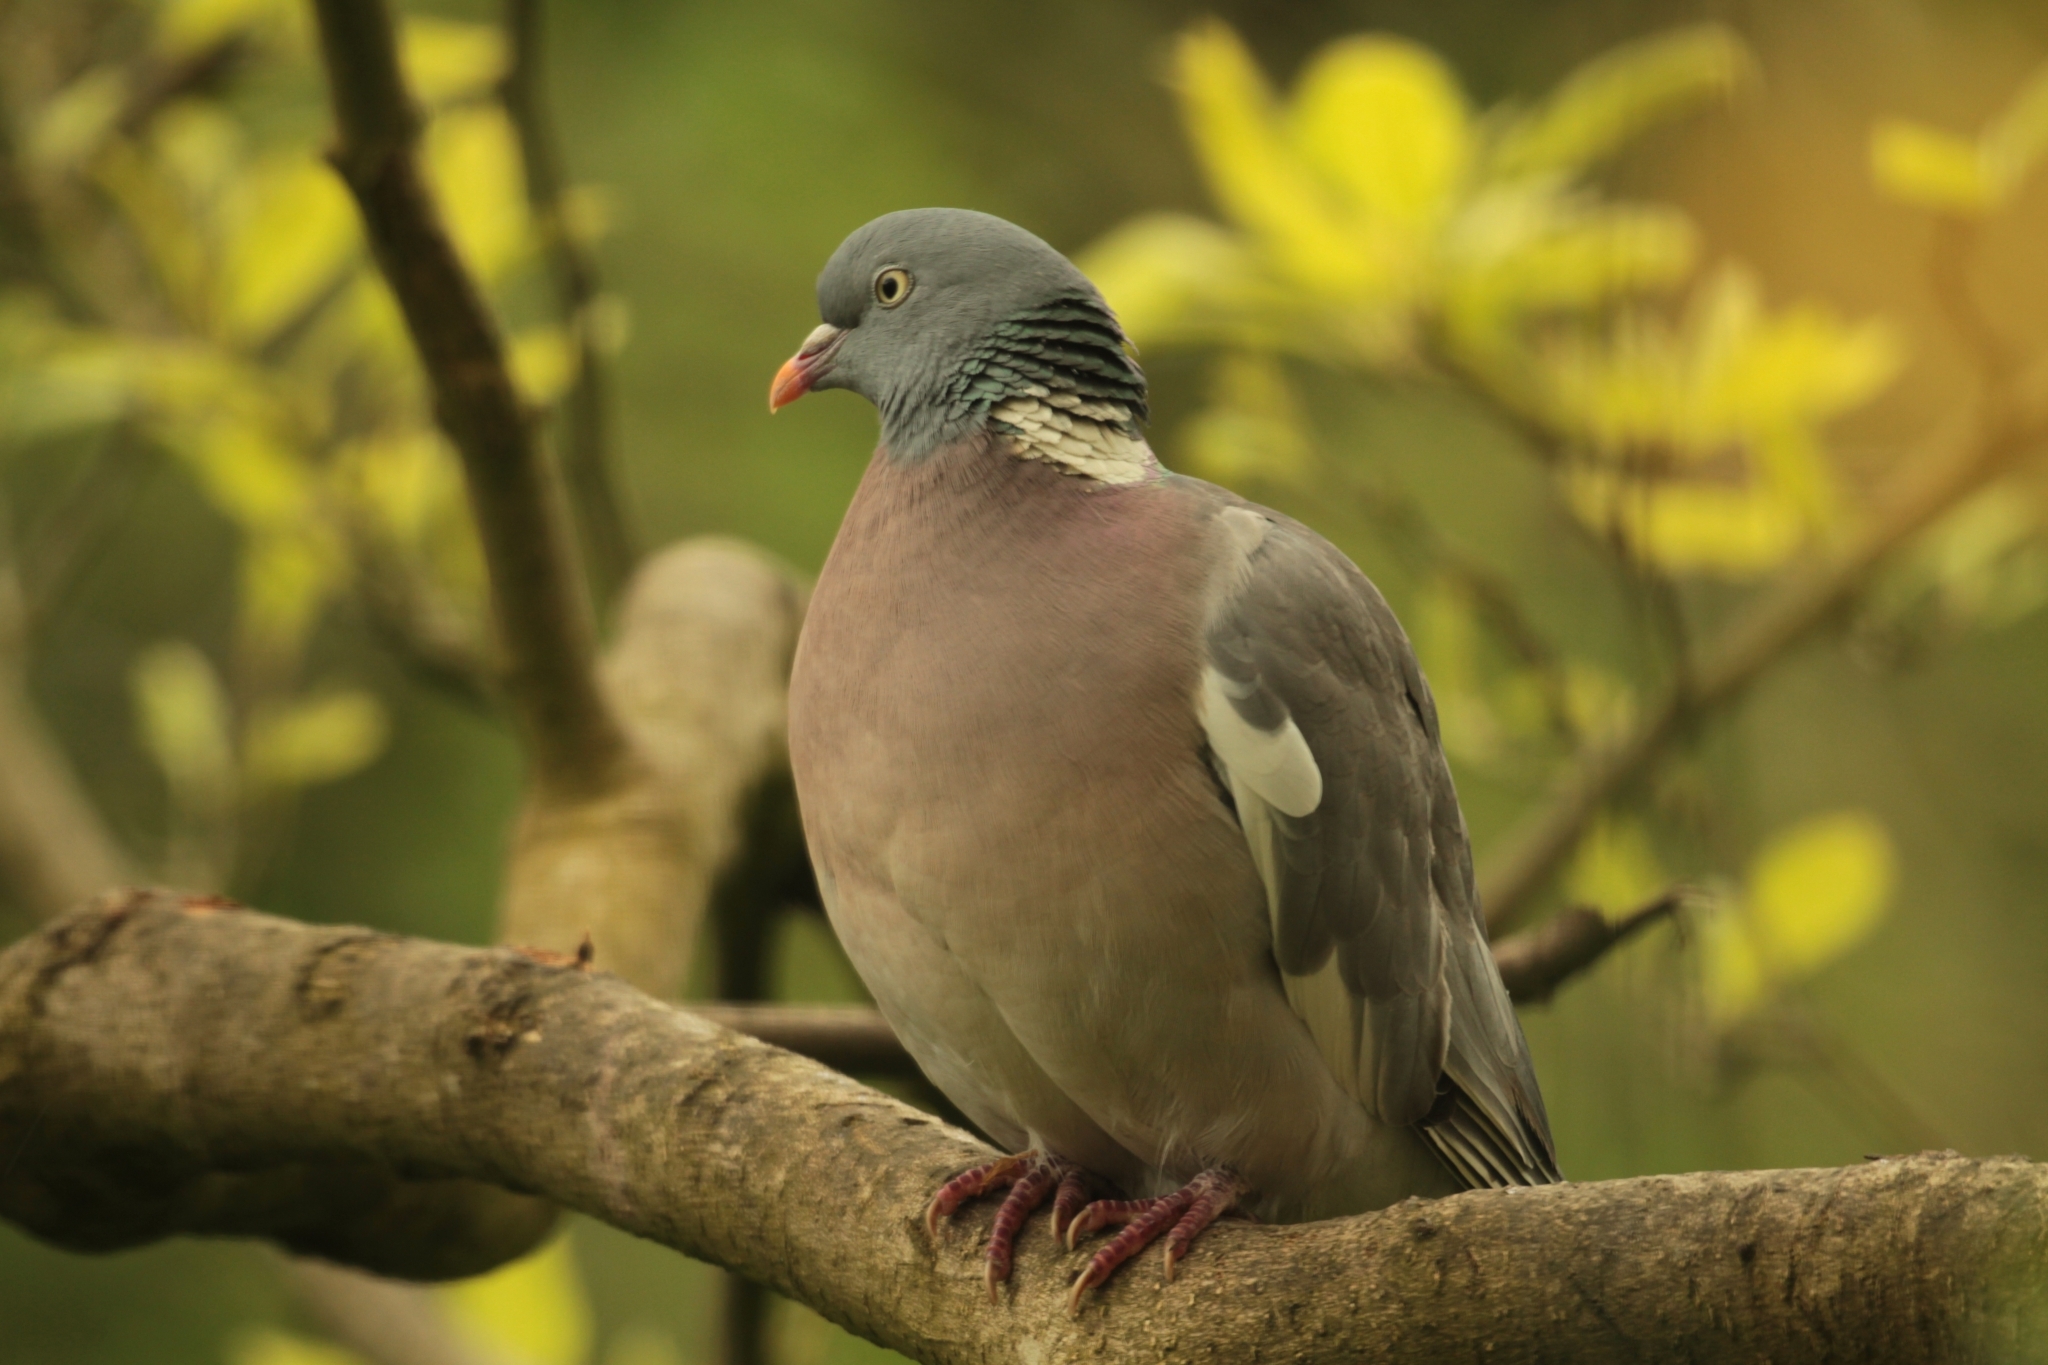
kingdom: Animalia
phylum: Chordata
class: Aves
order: Columbiformes
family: Columbidae
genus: Columba
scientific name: Columba palumbus
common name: Common wood pigeon
